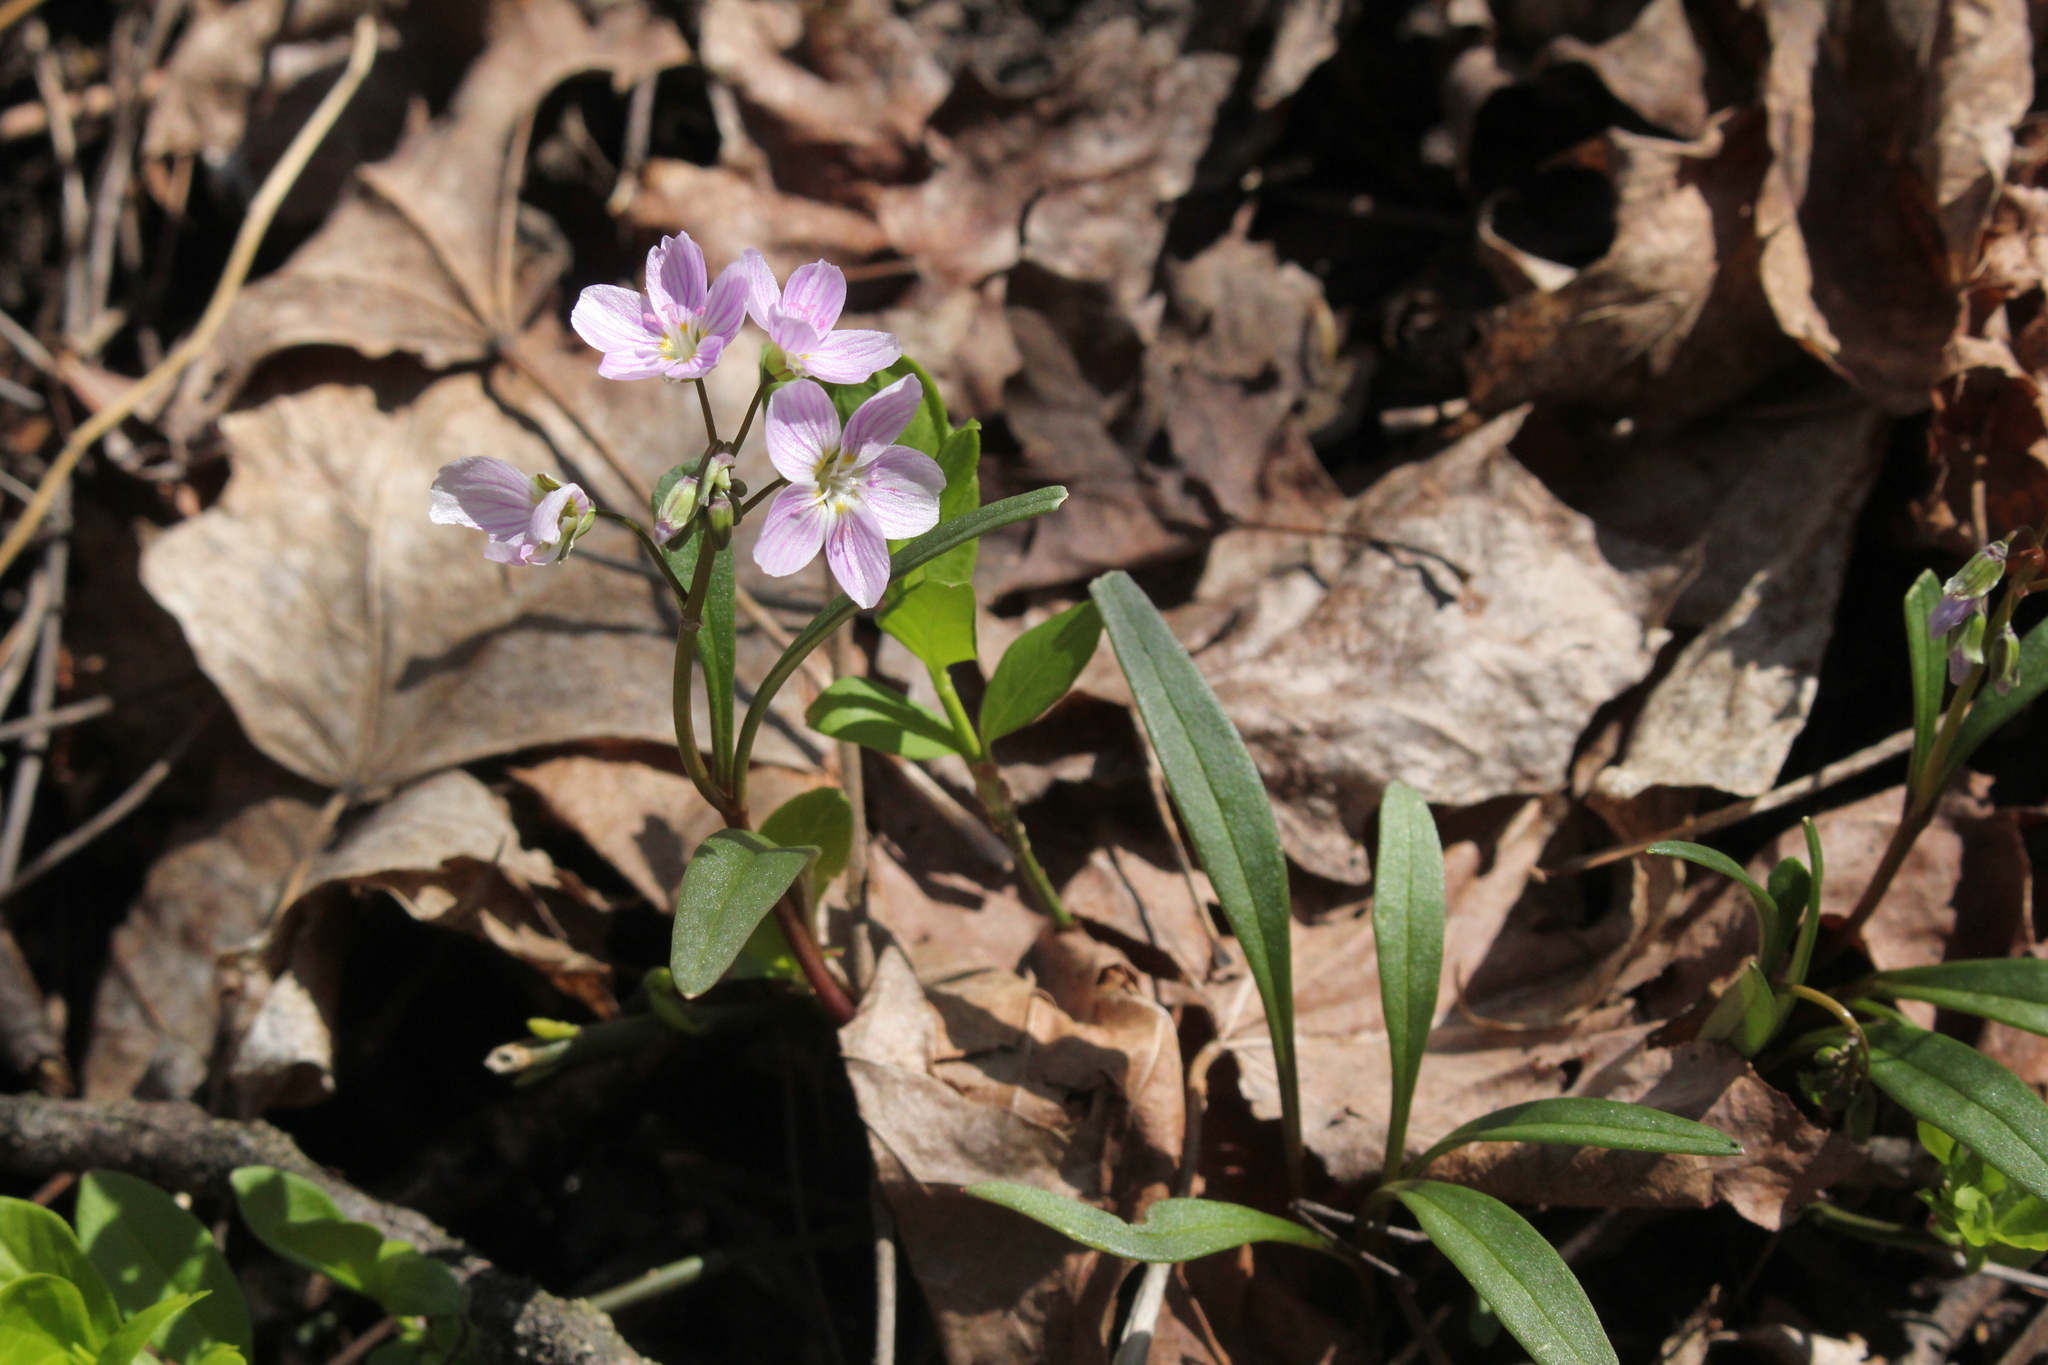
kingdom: Plantae
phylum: Tracheophyta
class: Magnoliopsida
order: Caryophyllales
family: Montiaceae
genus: Claytonia
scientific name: Claytonia virginica
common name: Virginia springbeauty
